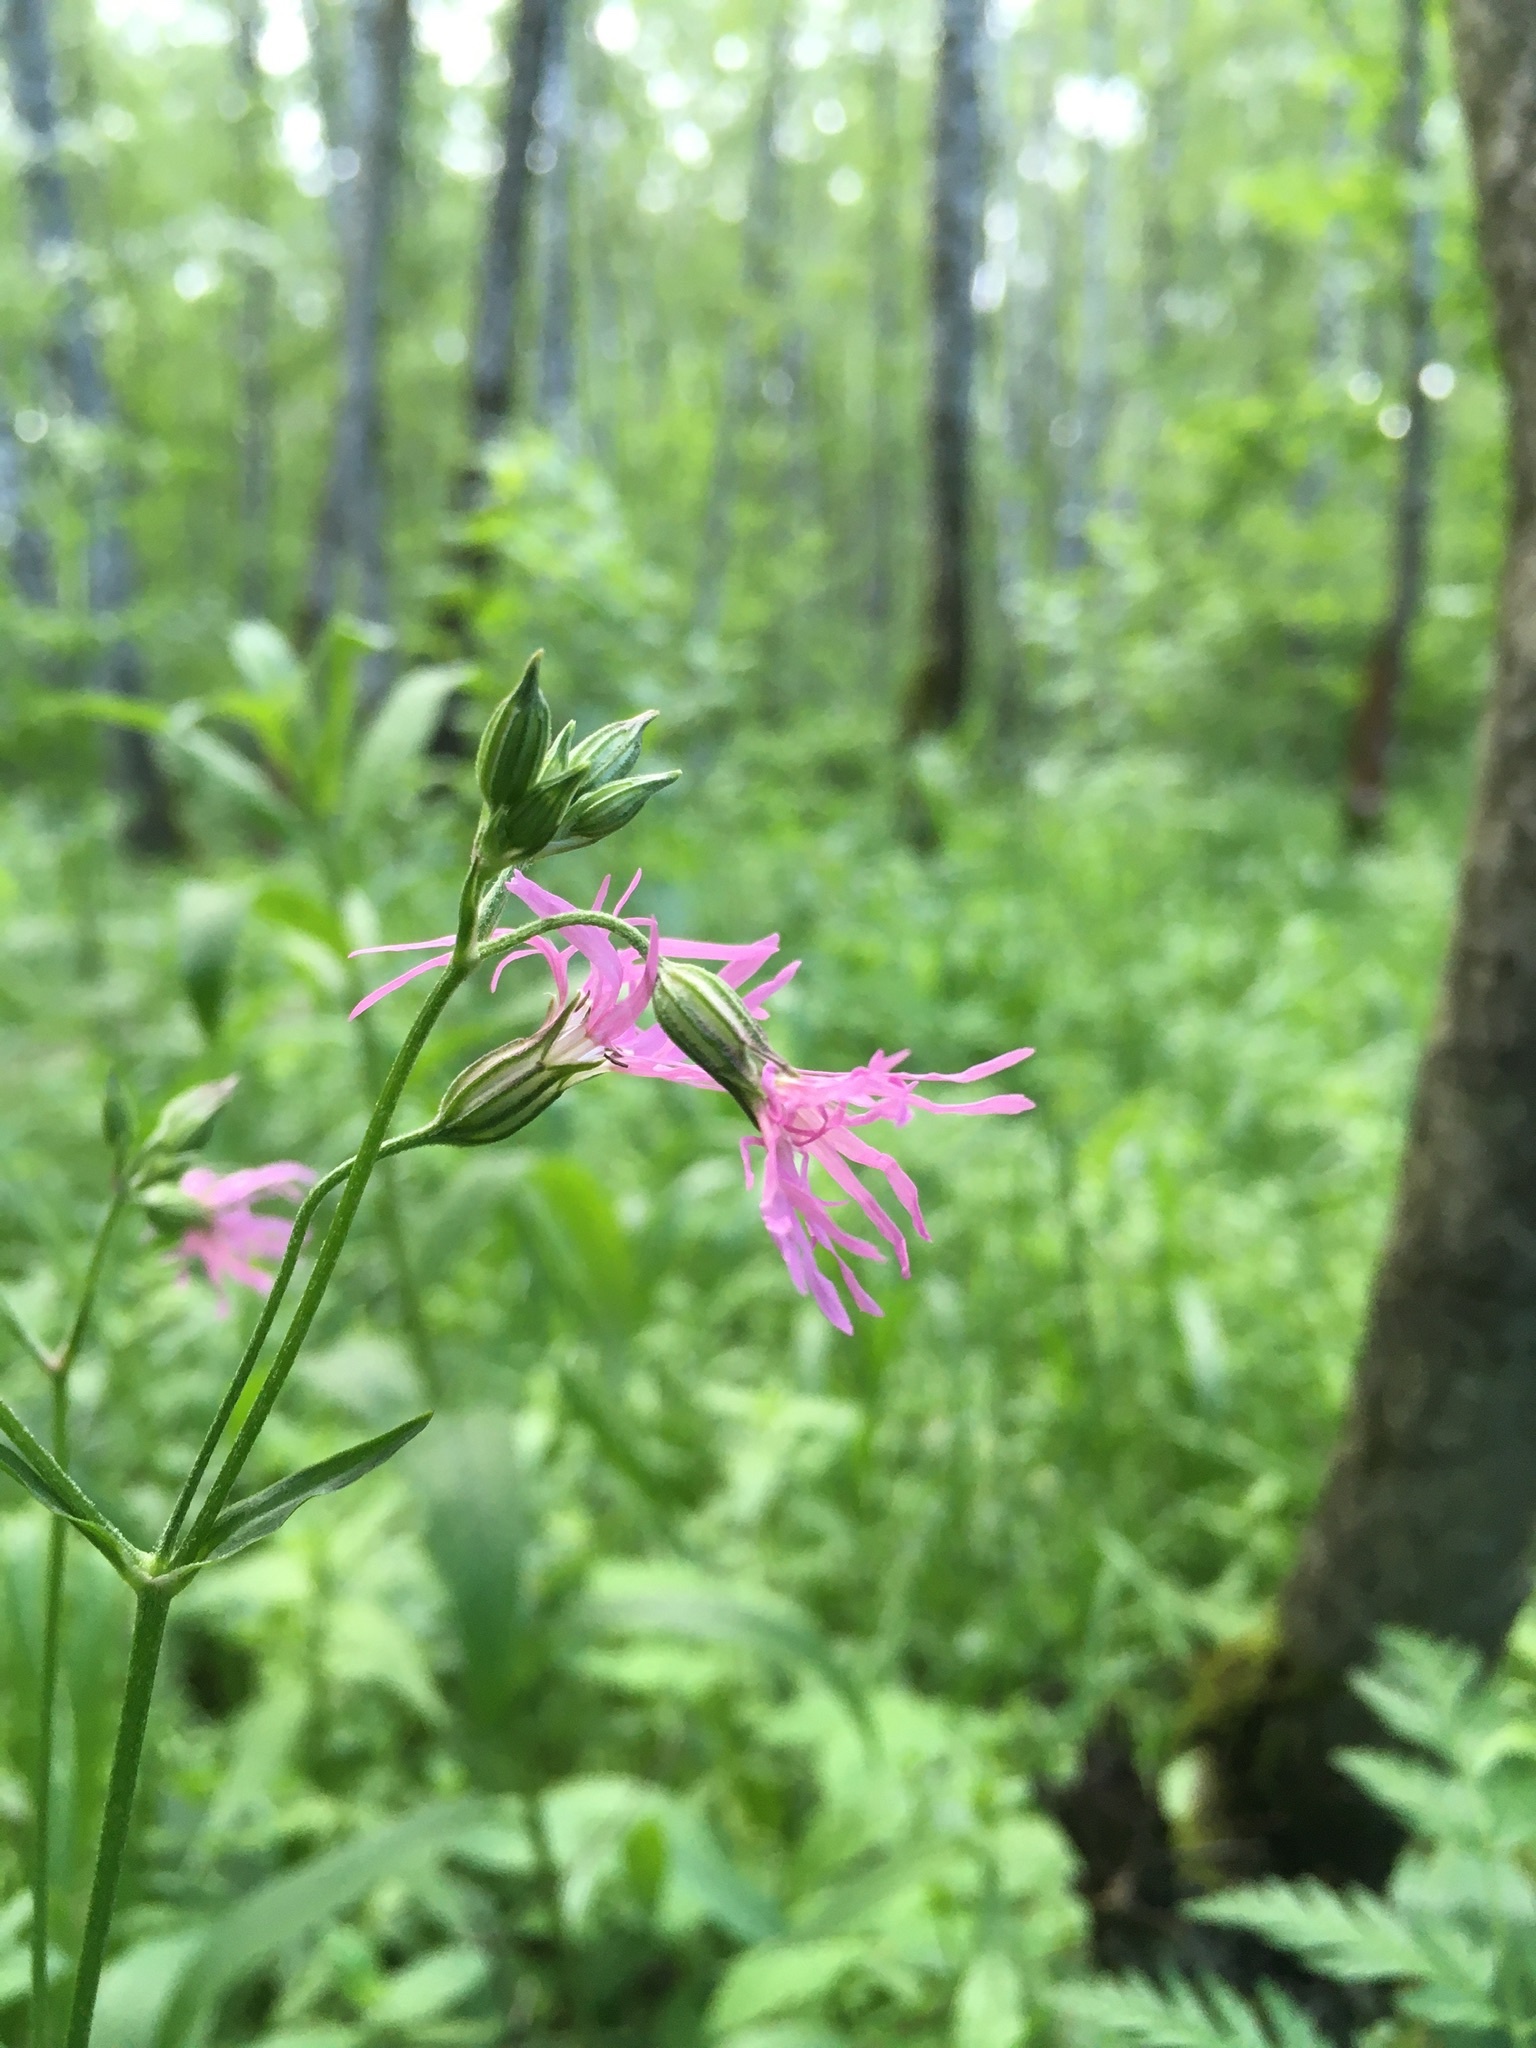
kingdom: Plantae
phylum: Tracheophyta
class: Magnoliopsida
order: Caryophyllales
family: Caryophyllaceae
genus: Silene
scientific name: Silene flos-cuculi
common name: Ragged-robin
